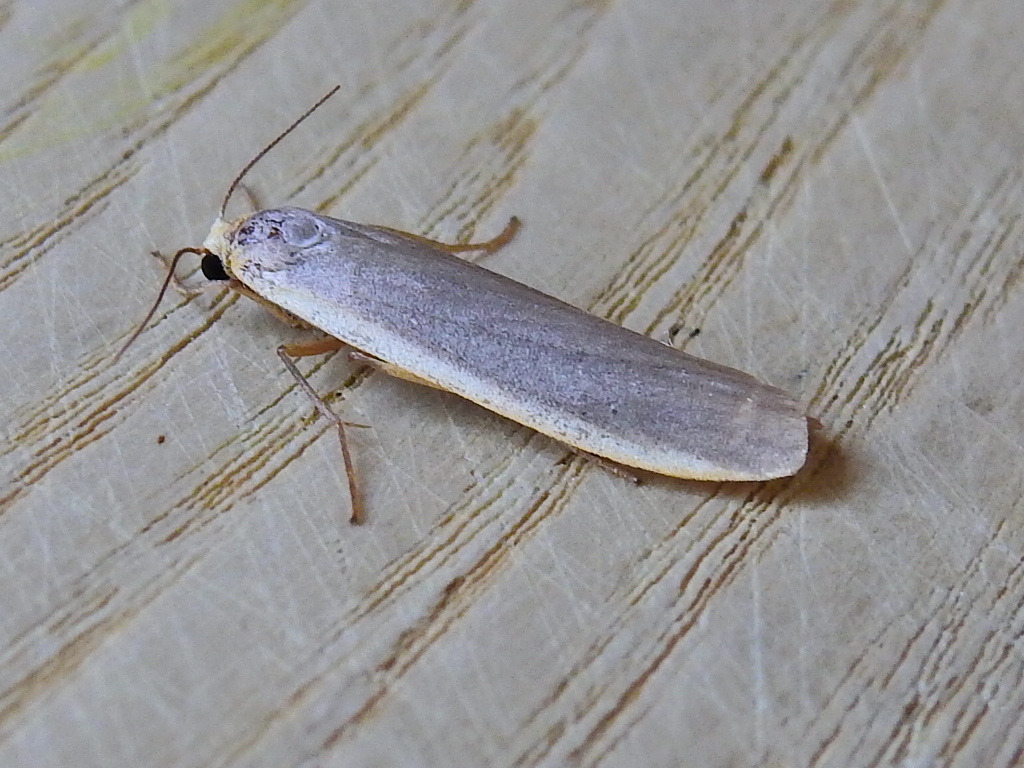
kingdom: Animalia
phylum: Arthropoda
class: Insecta
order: Lepidoptera
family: Erebidae
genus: Nyea
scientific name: Nyea lurideola
